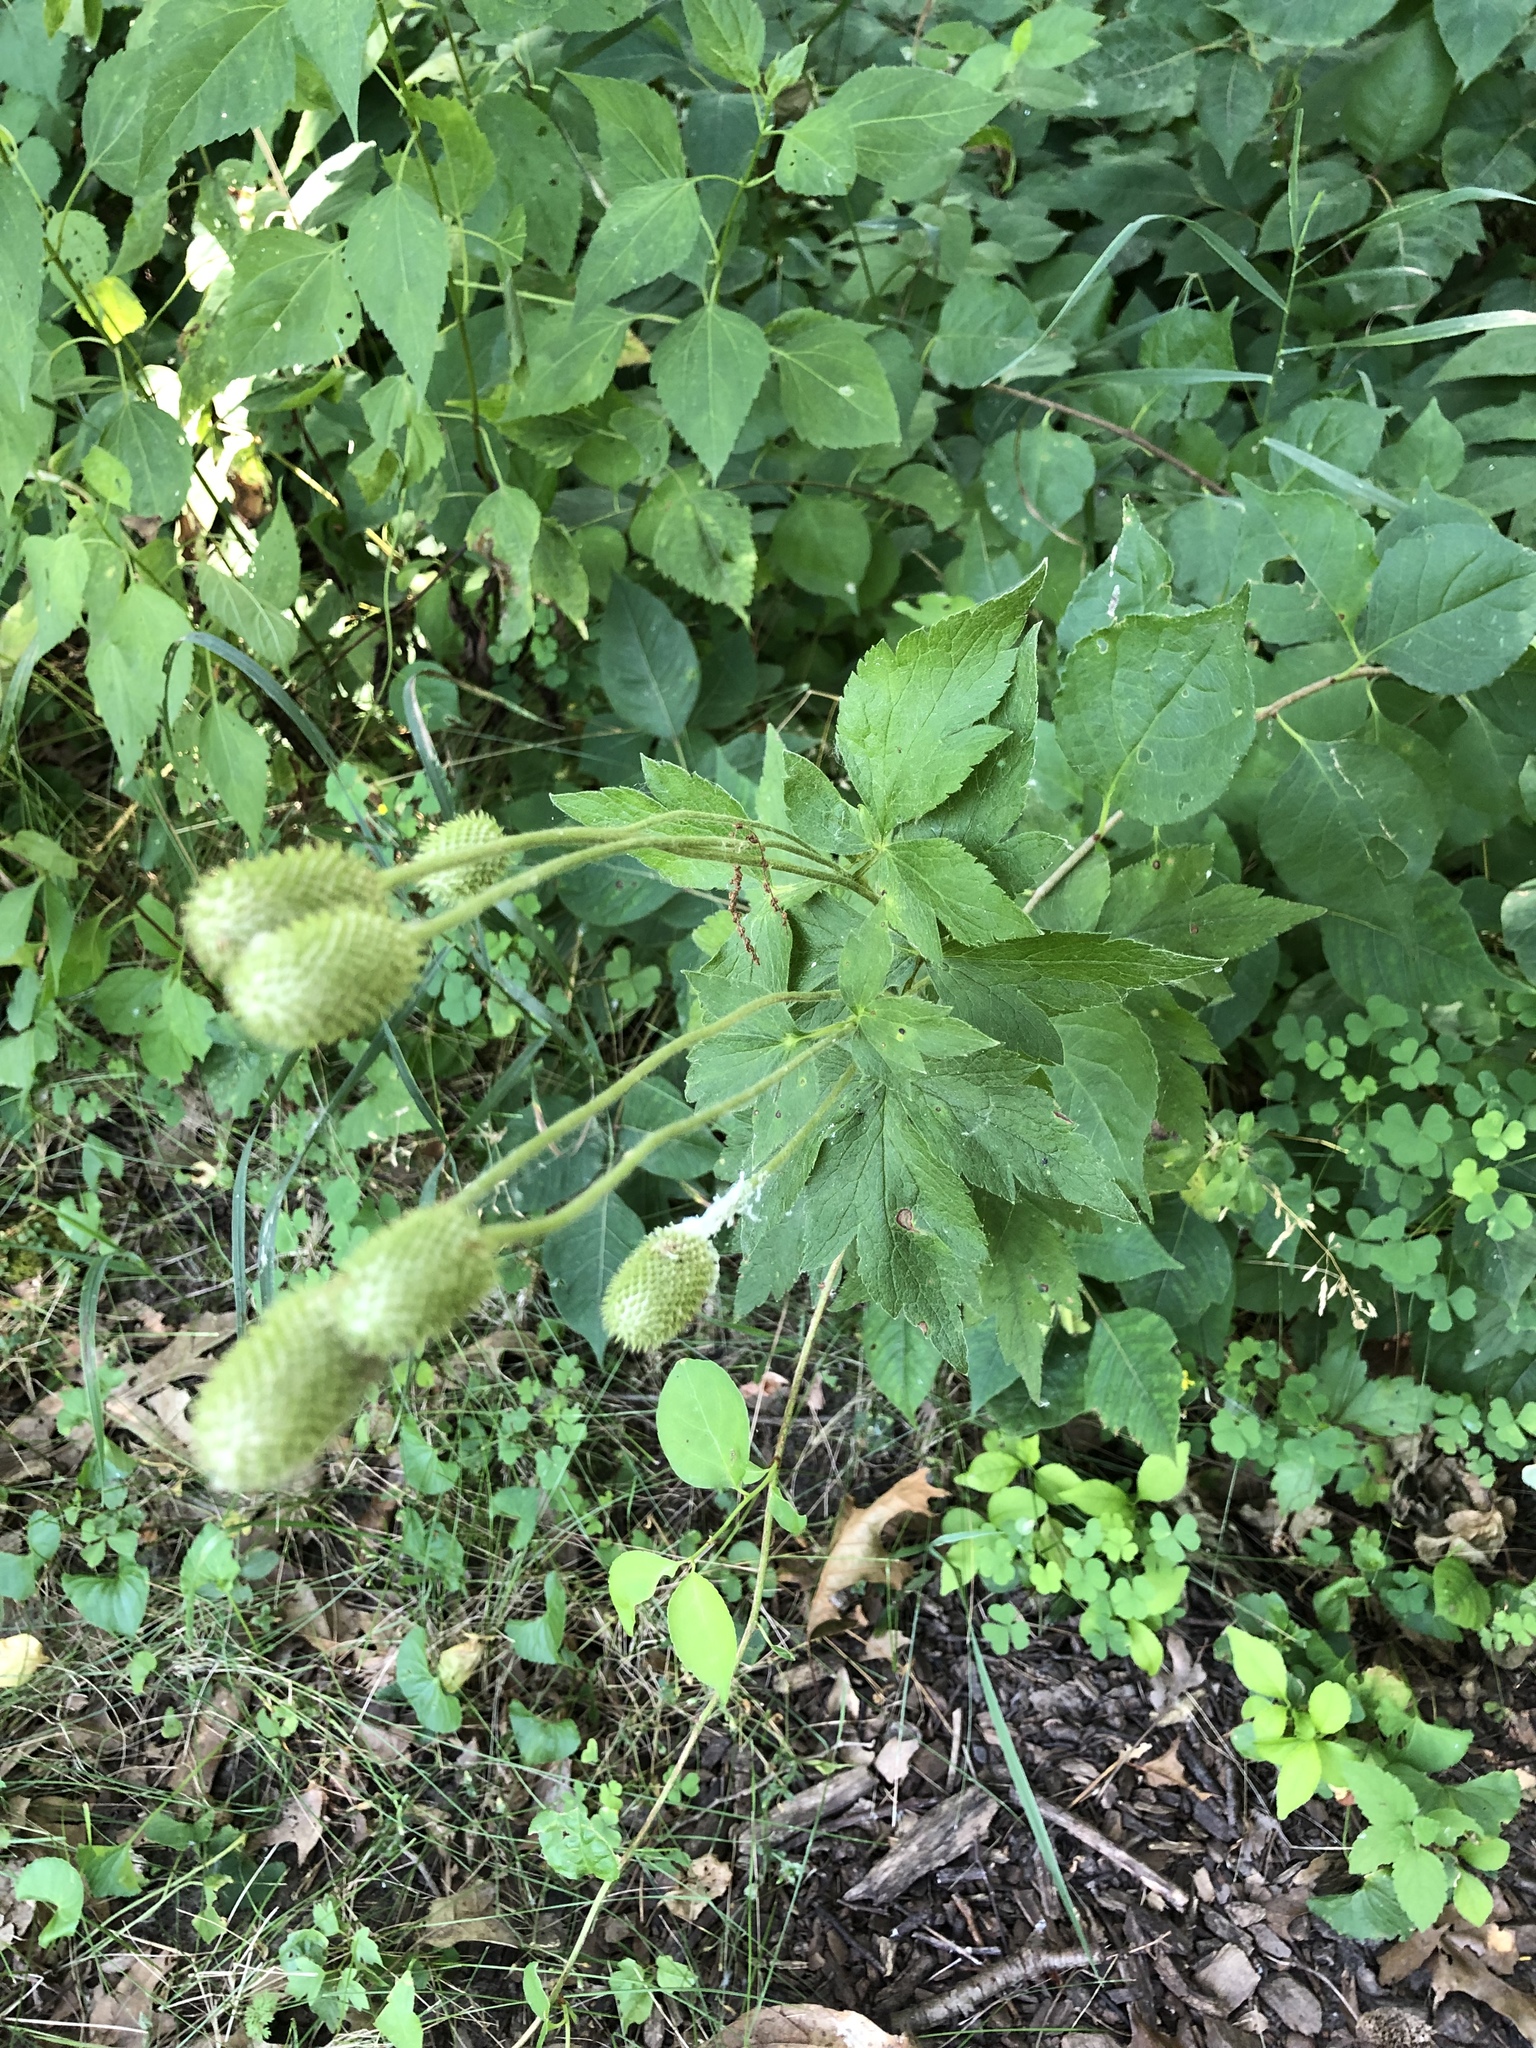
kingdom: Plantae
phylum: Tracheophyta
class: Magnoliopsida
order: Ranunculales
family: Ranunculaceae
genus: Anemone
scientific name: Anemone virginiana
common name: Tall anemone
